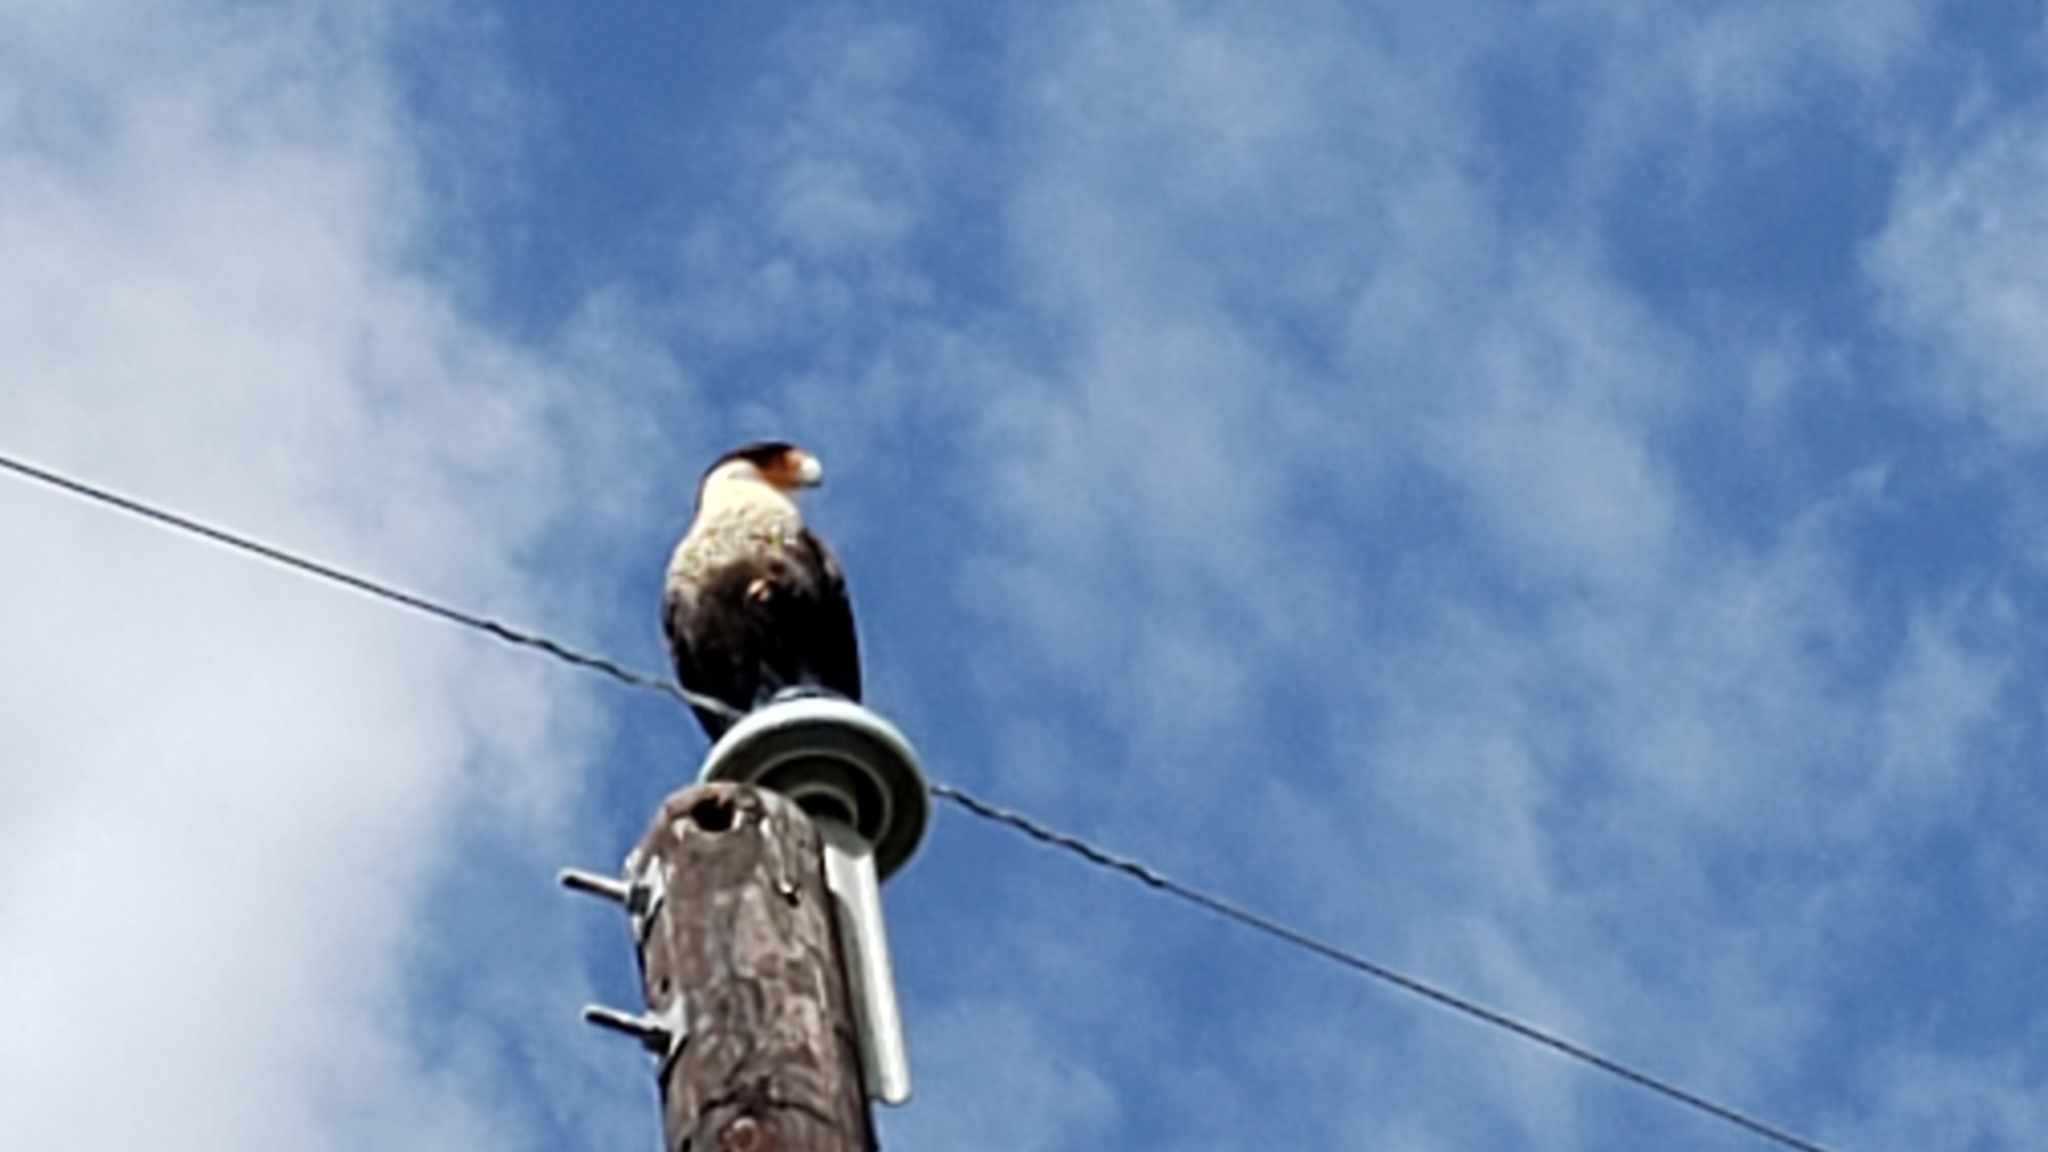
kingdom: Animalia
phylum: Chordata
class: Aves
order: Falconiformes
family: Falconidae
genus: Caracara
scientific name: Caracara plancus
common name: Southern caracara
